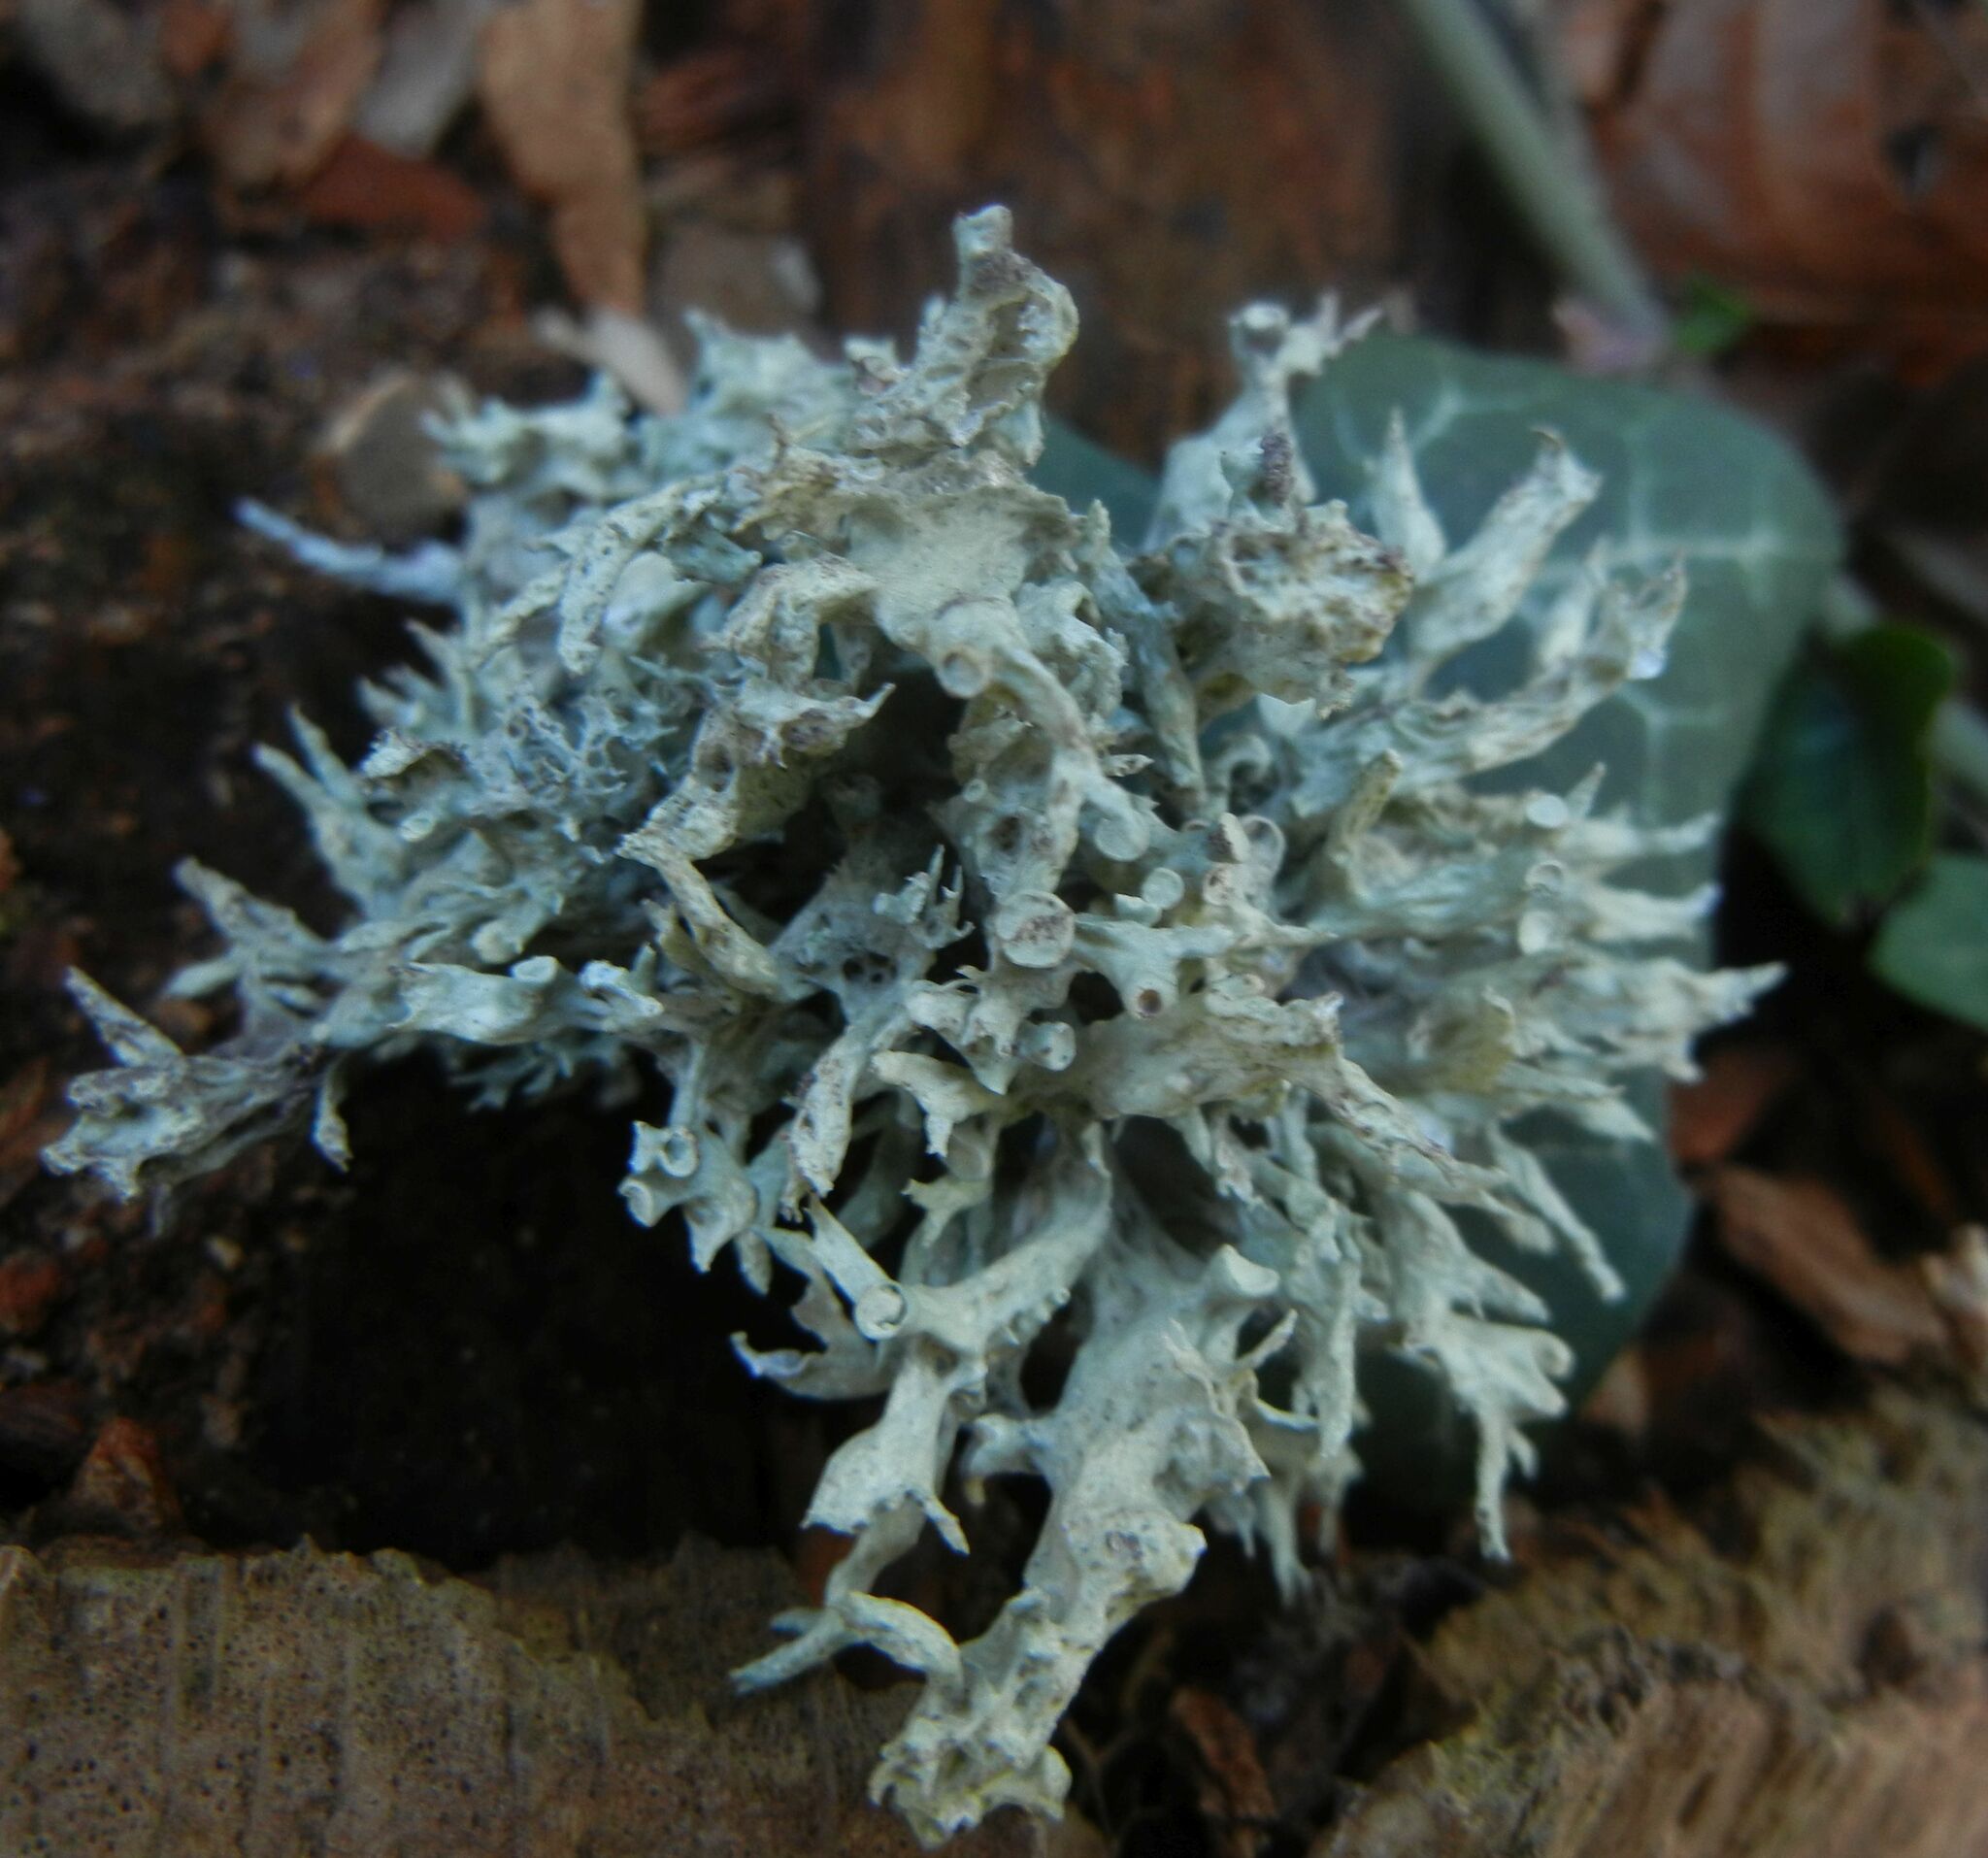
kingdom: Fungi
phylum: Ascomycota
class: Lecanoromycetes
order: Lecanorales
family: Ramalinaceae
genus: Ramalina
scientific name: Ramalina fastigiata
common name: Dotted ribbon lichen
